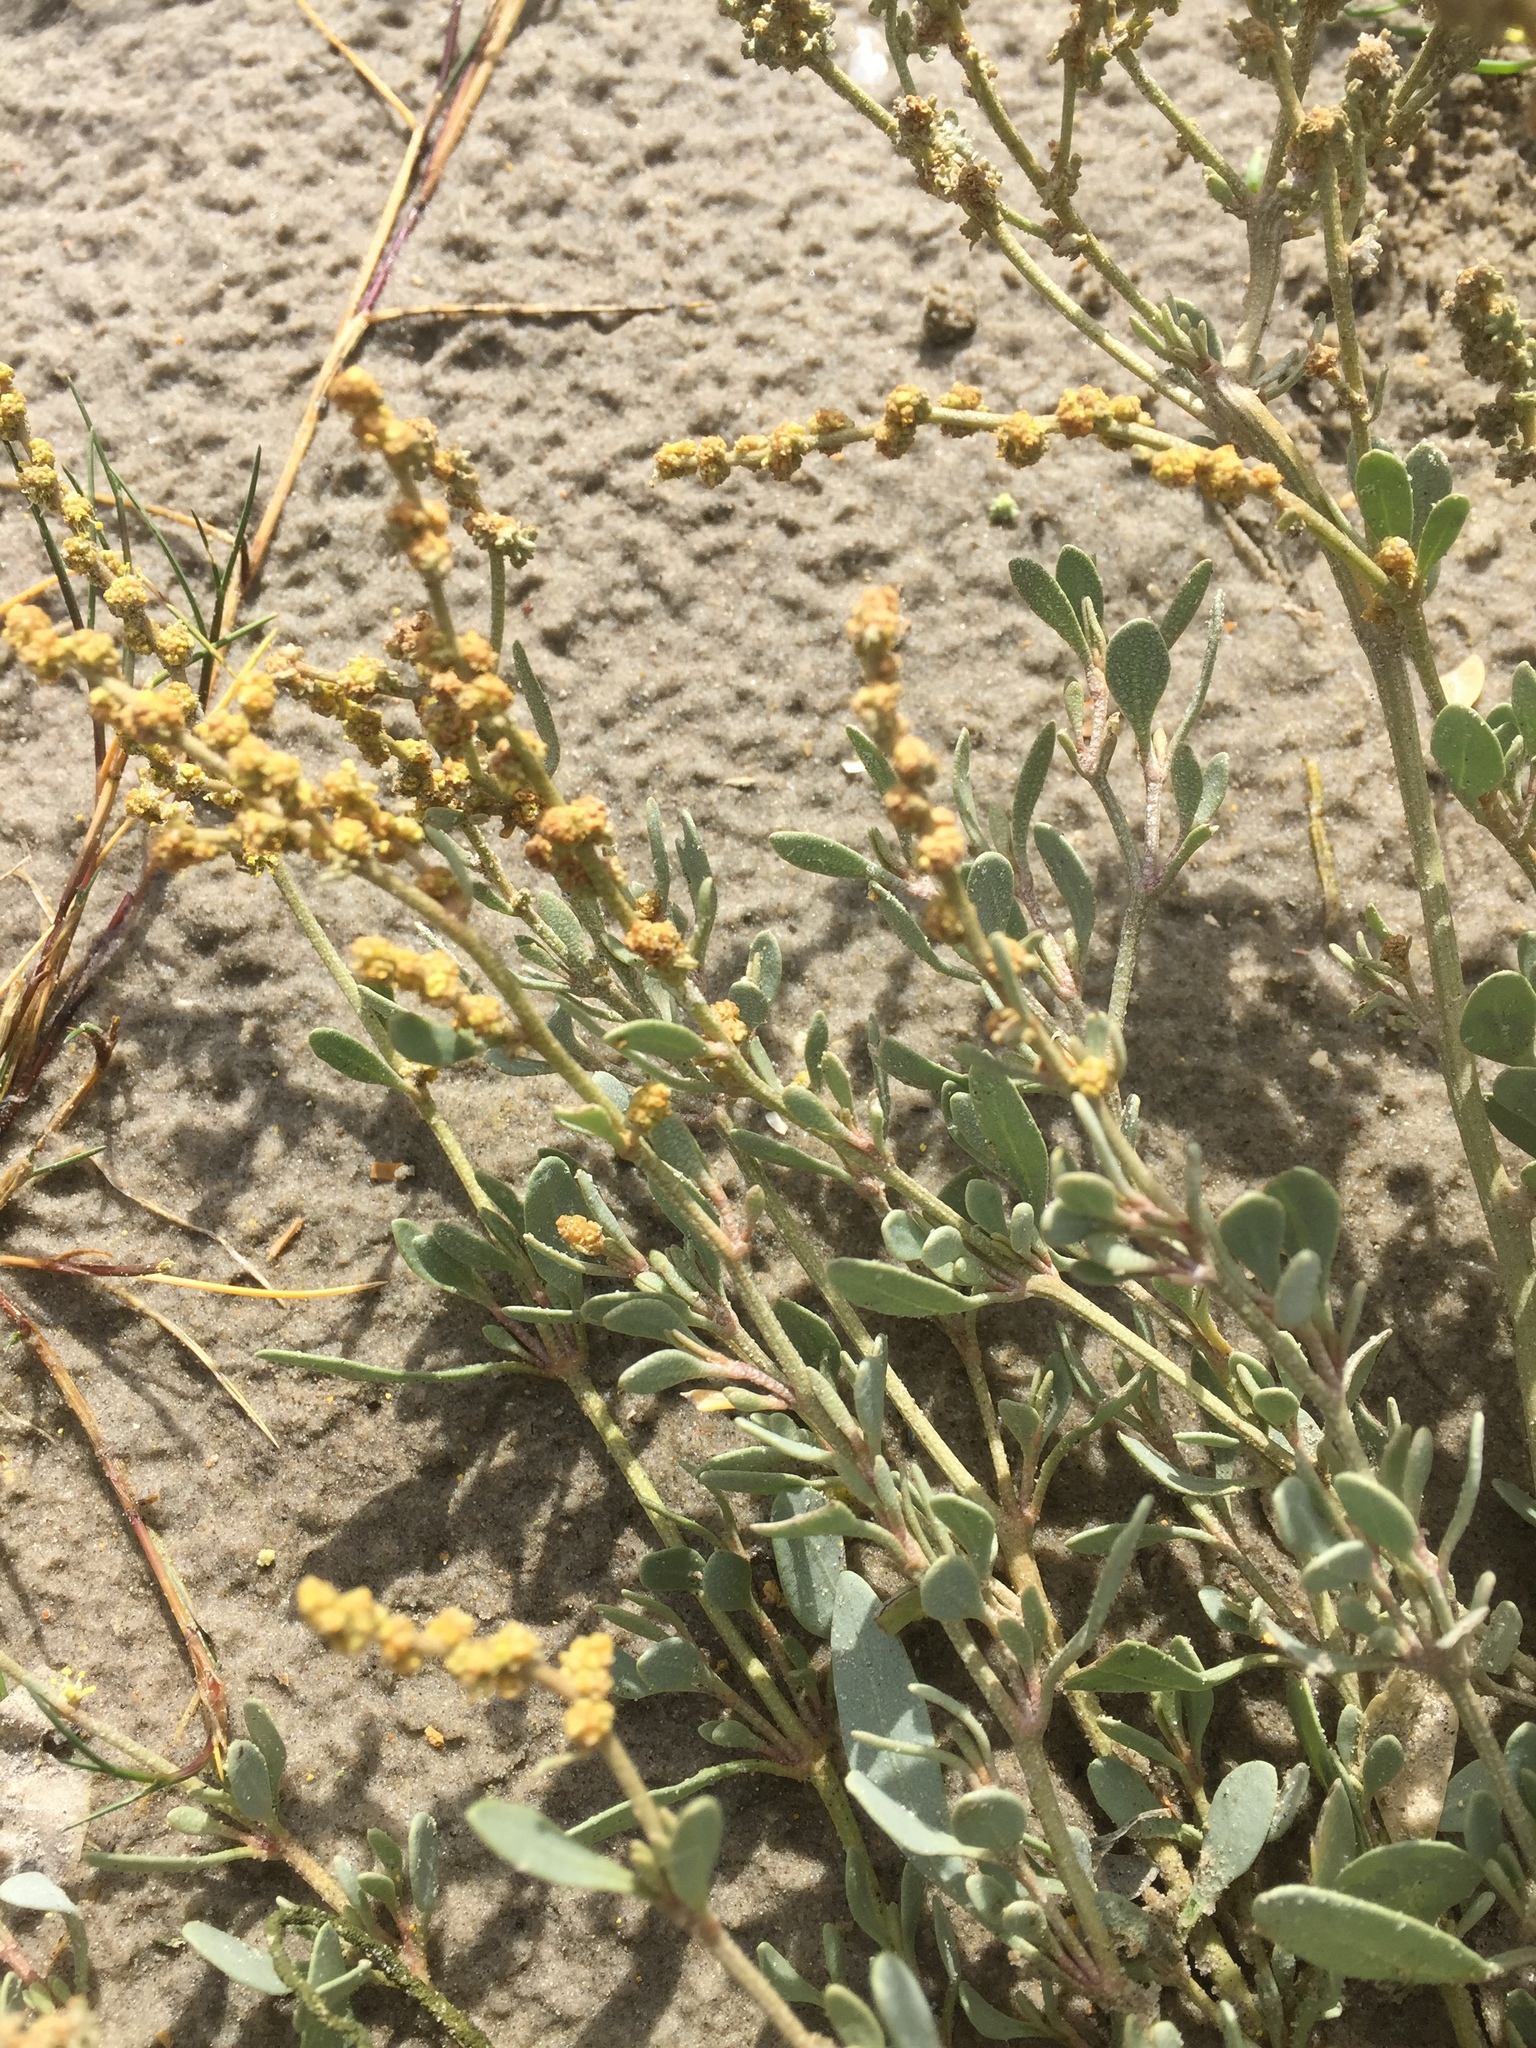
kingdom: Plantae
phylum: Tracheophyta
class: Magnoliopsida
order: Caryophyllales
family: Amaranthaceae
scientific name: Amaranthaceae
